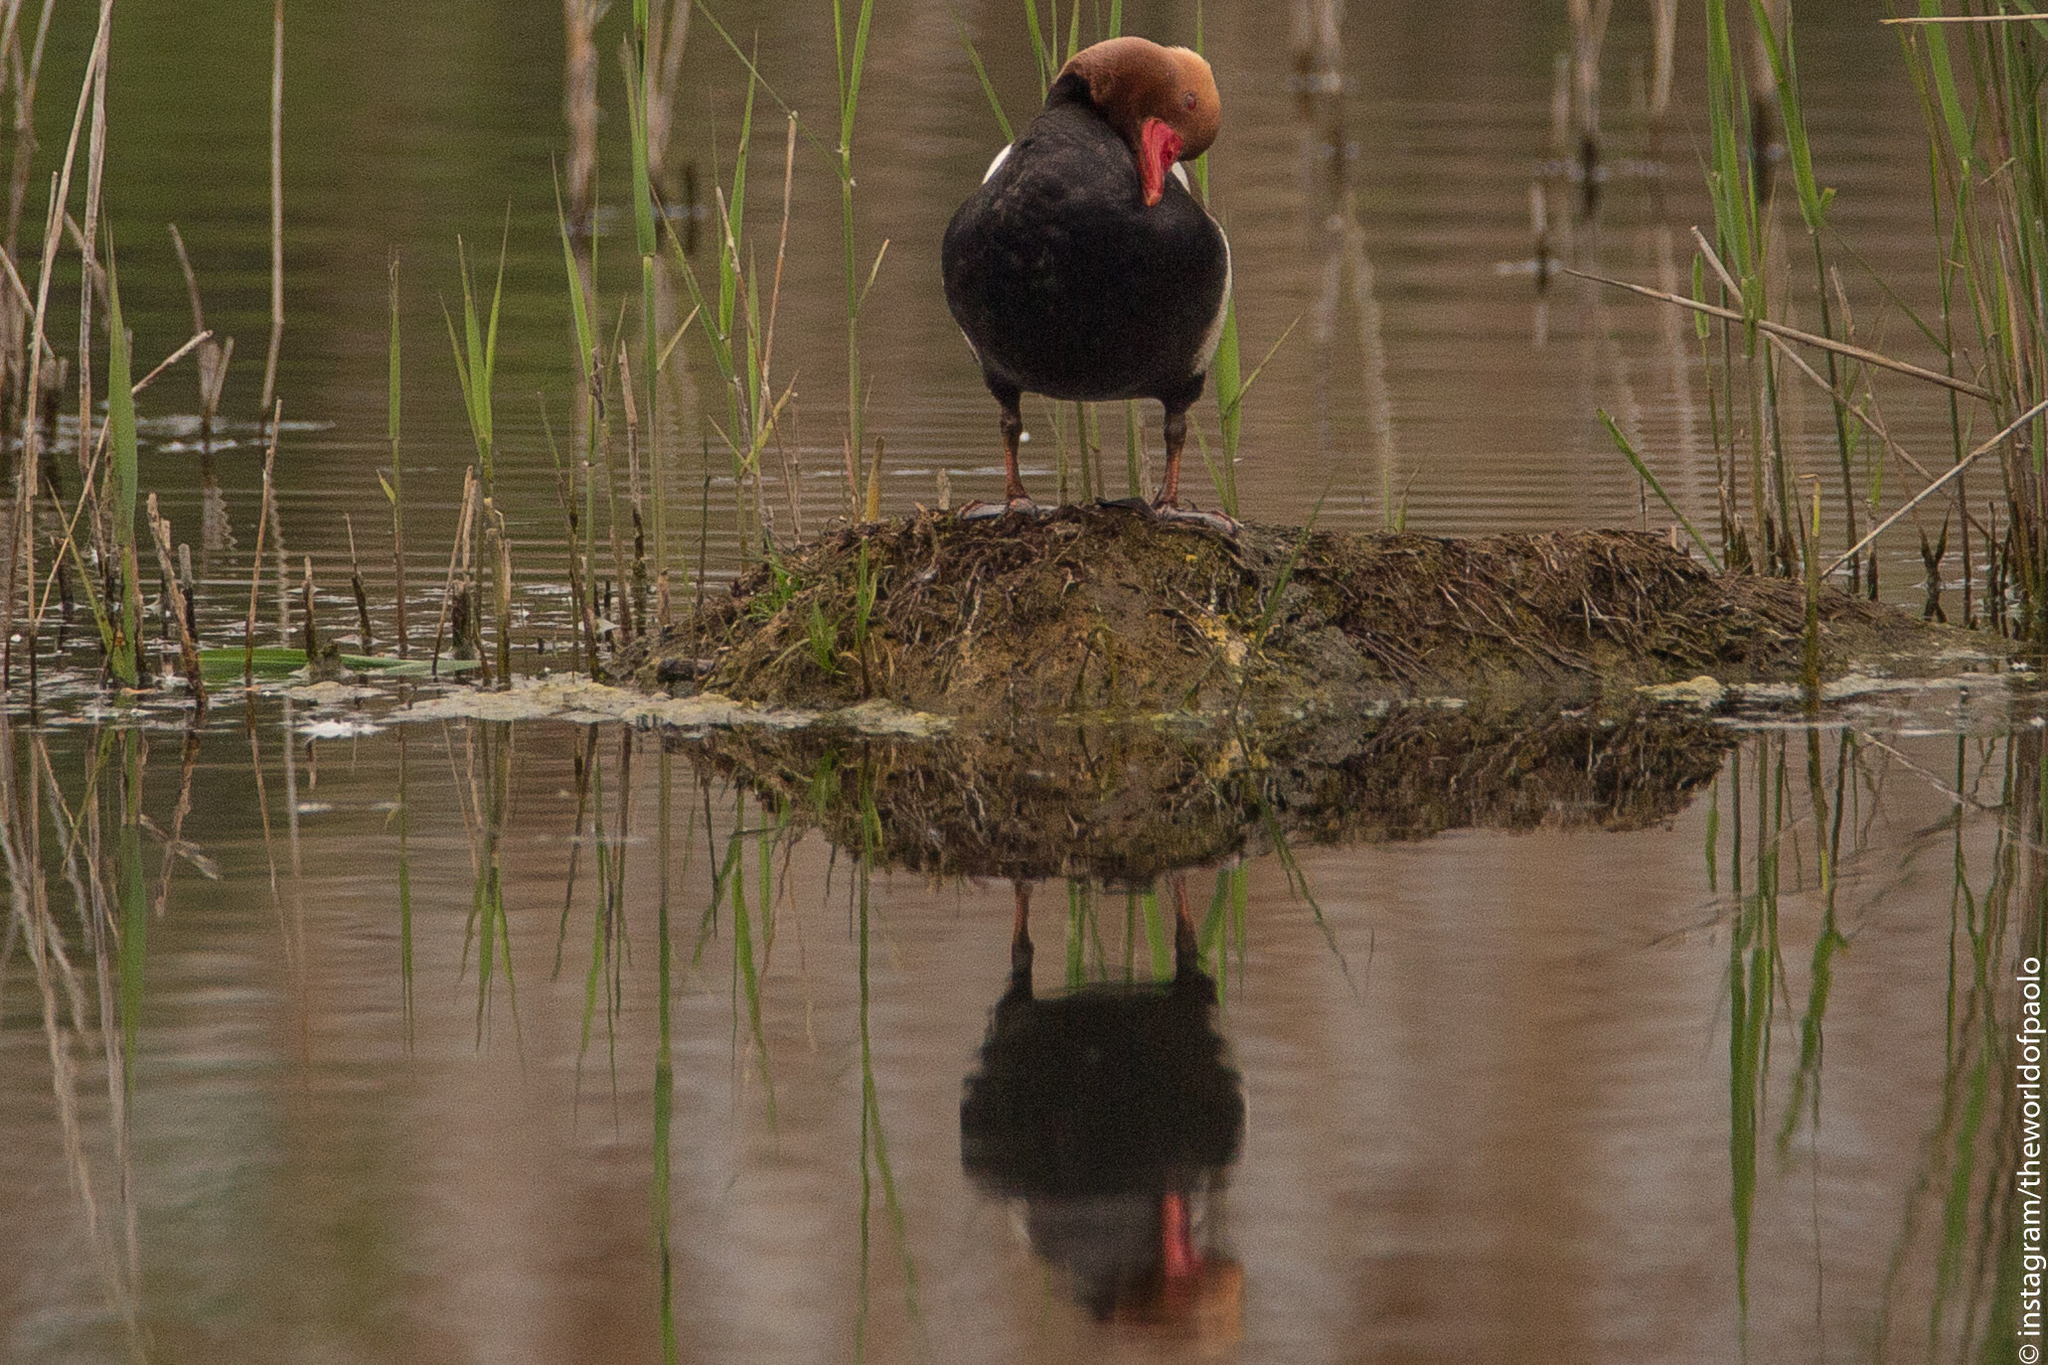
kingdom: Animalia
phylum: Chordata
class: Aves
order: Anseriformes
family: Anatidae
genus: Netta
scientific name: Netta rufina
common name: Red-crested pochard
